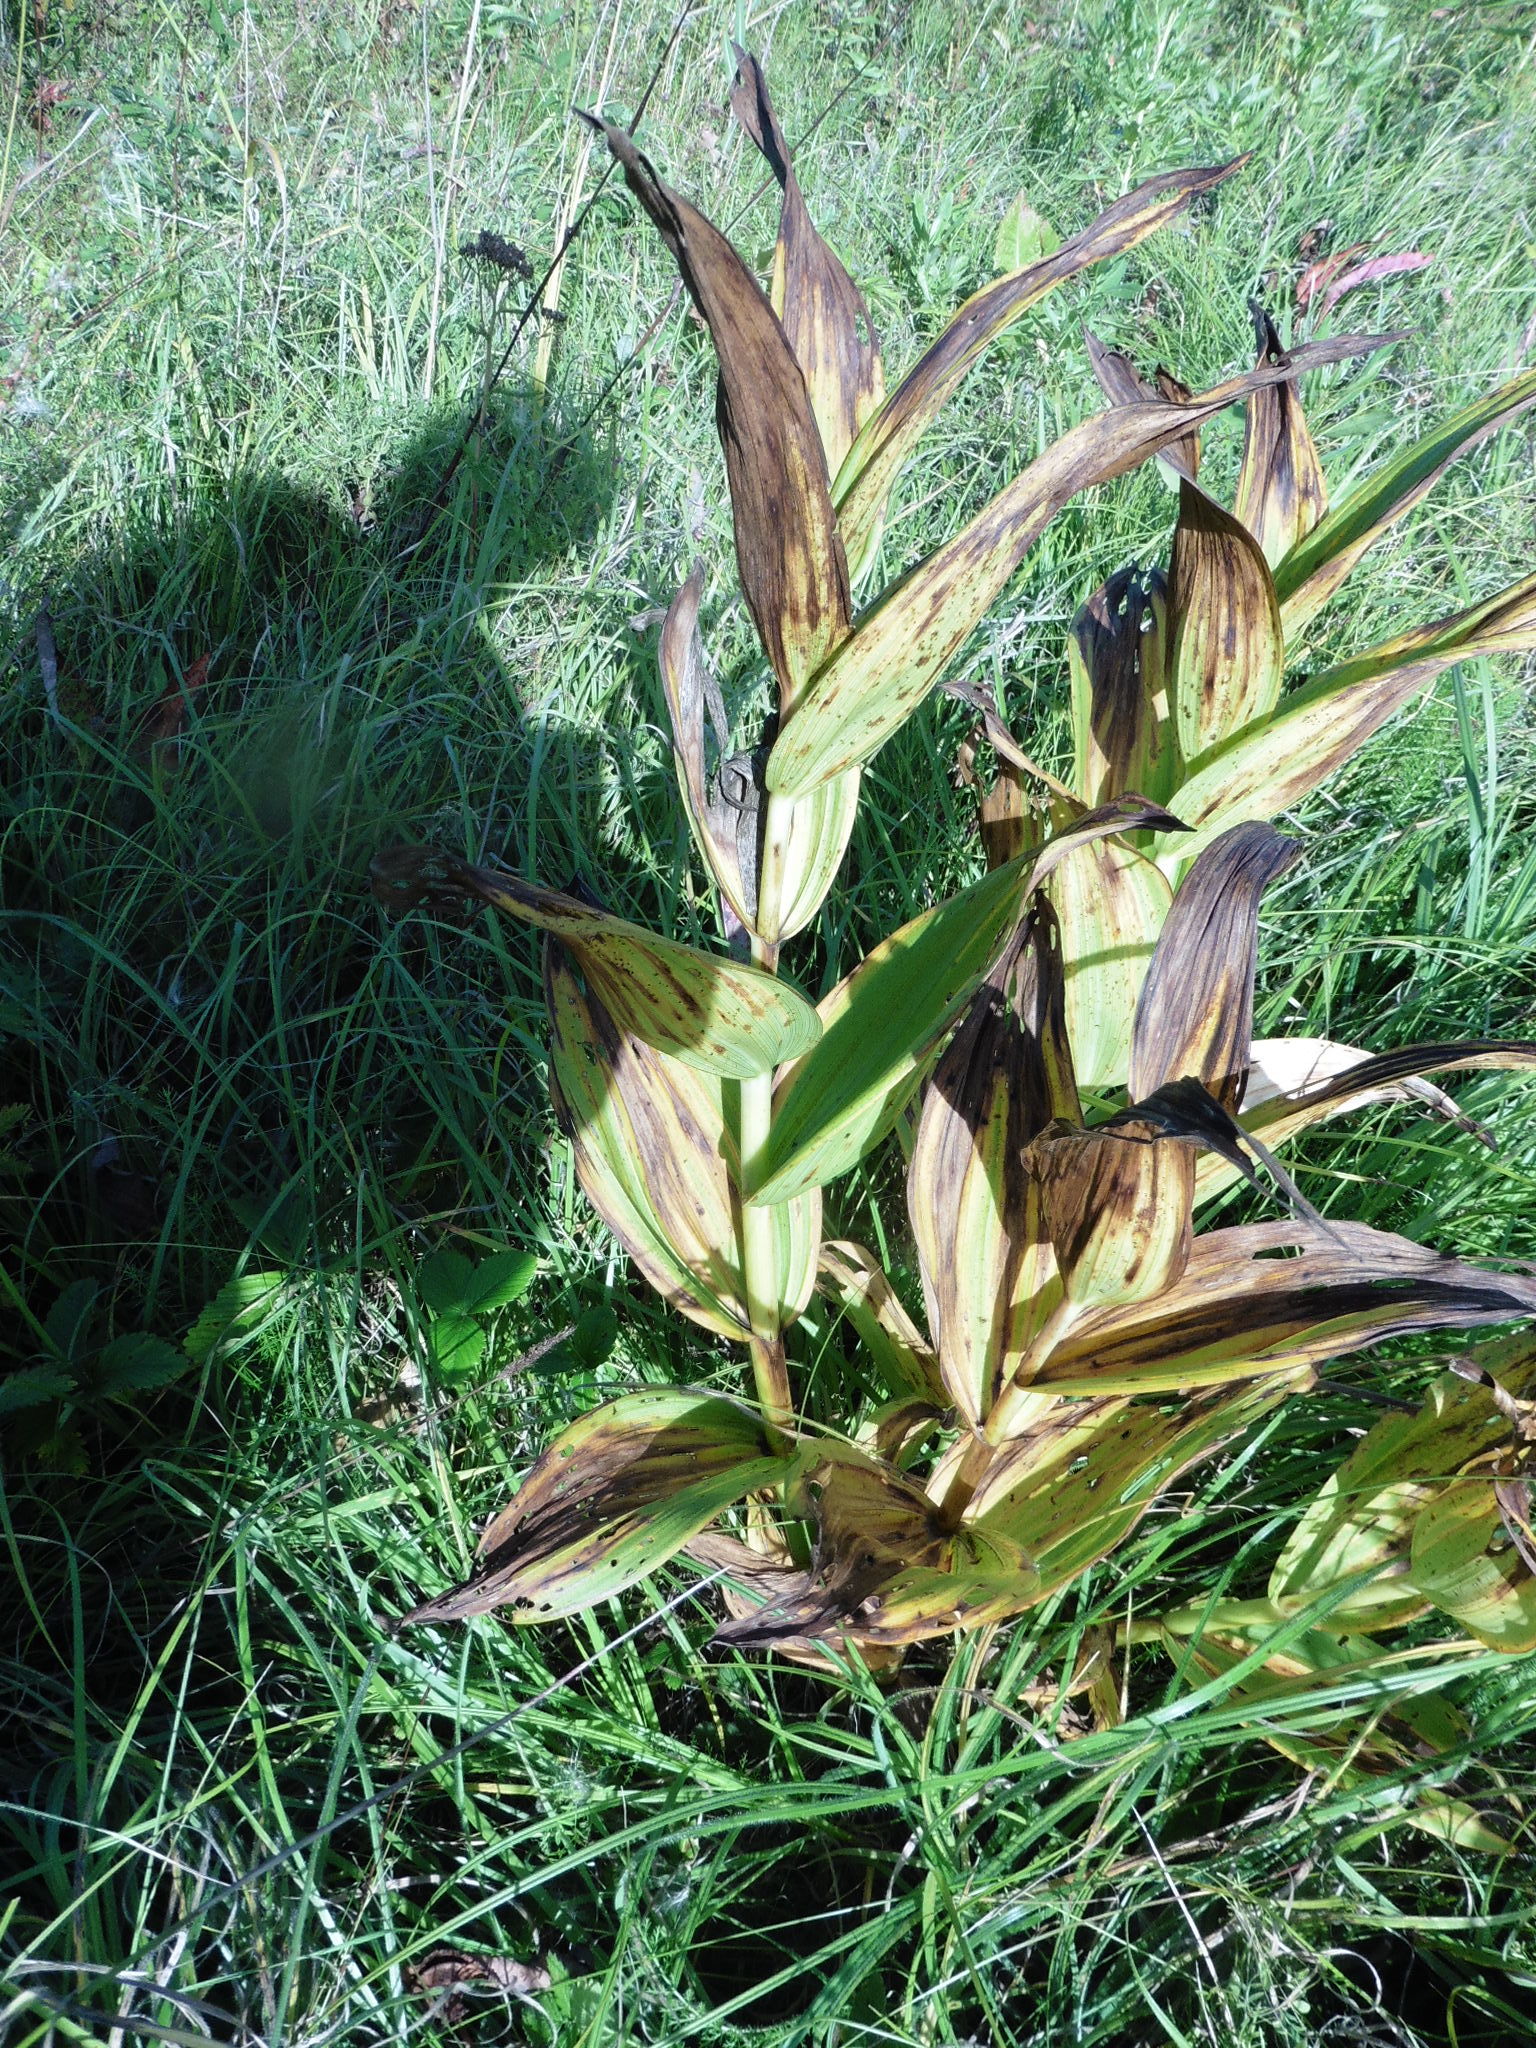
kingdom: Plantae
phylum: Tracheophyta
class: Liliopsida
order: Liliales
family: Melanthiaceae
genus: Veratrum
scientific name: Veratrum lobelianum
